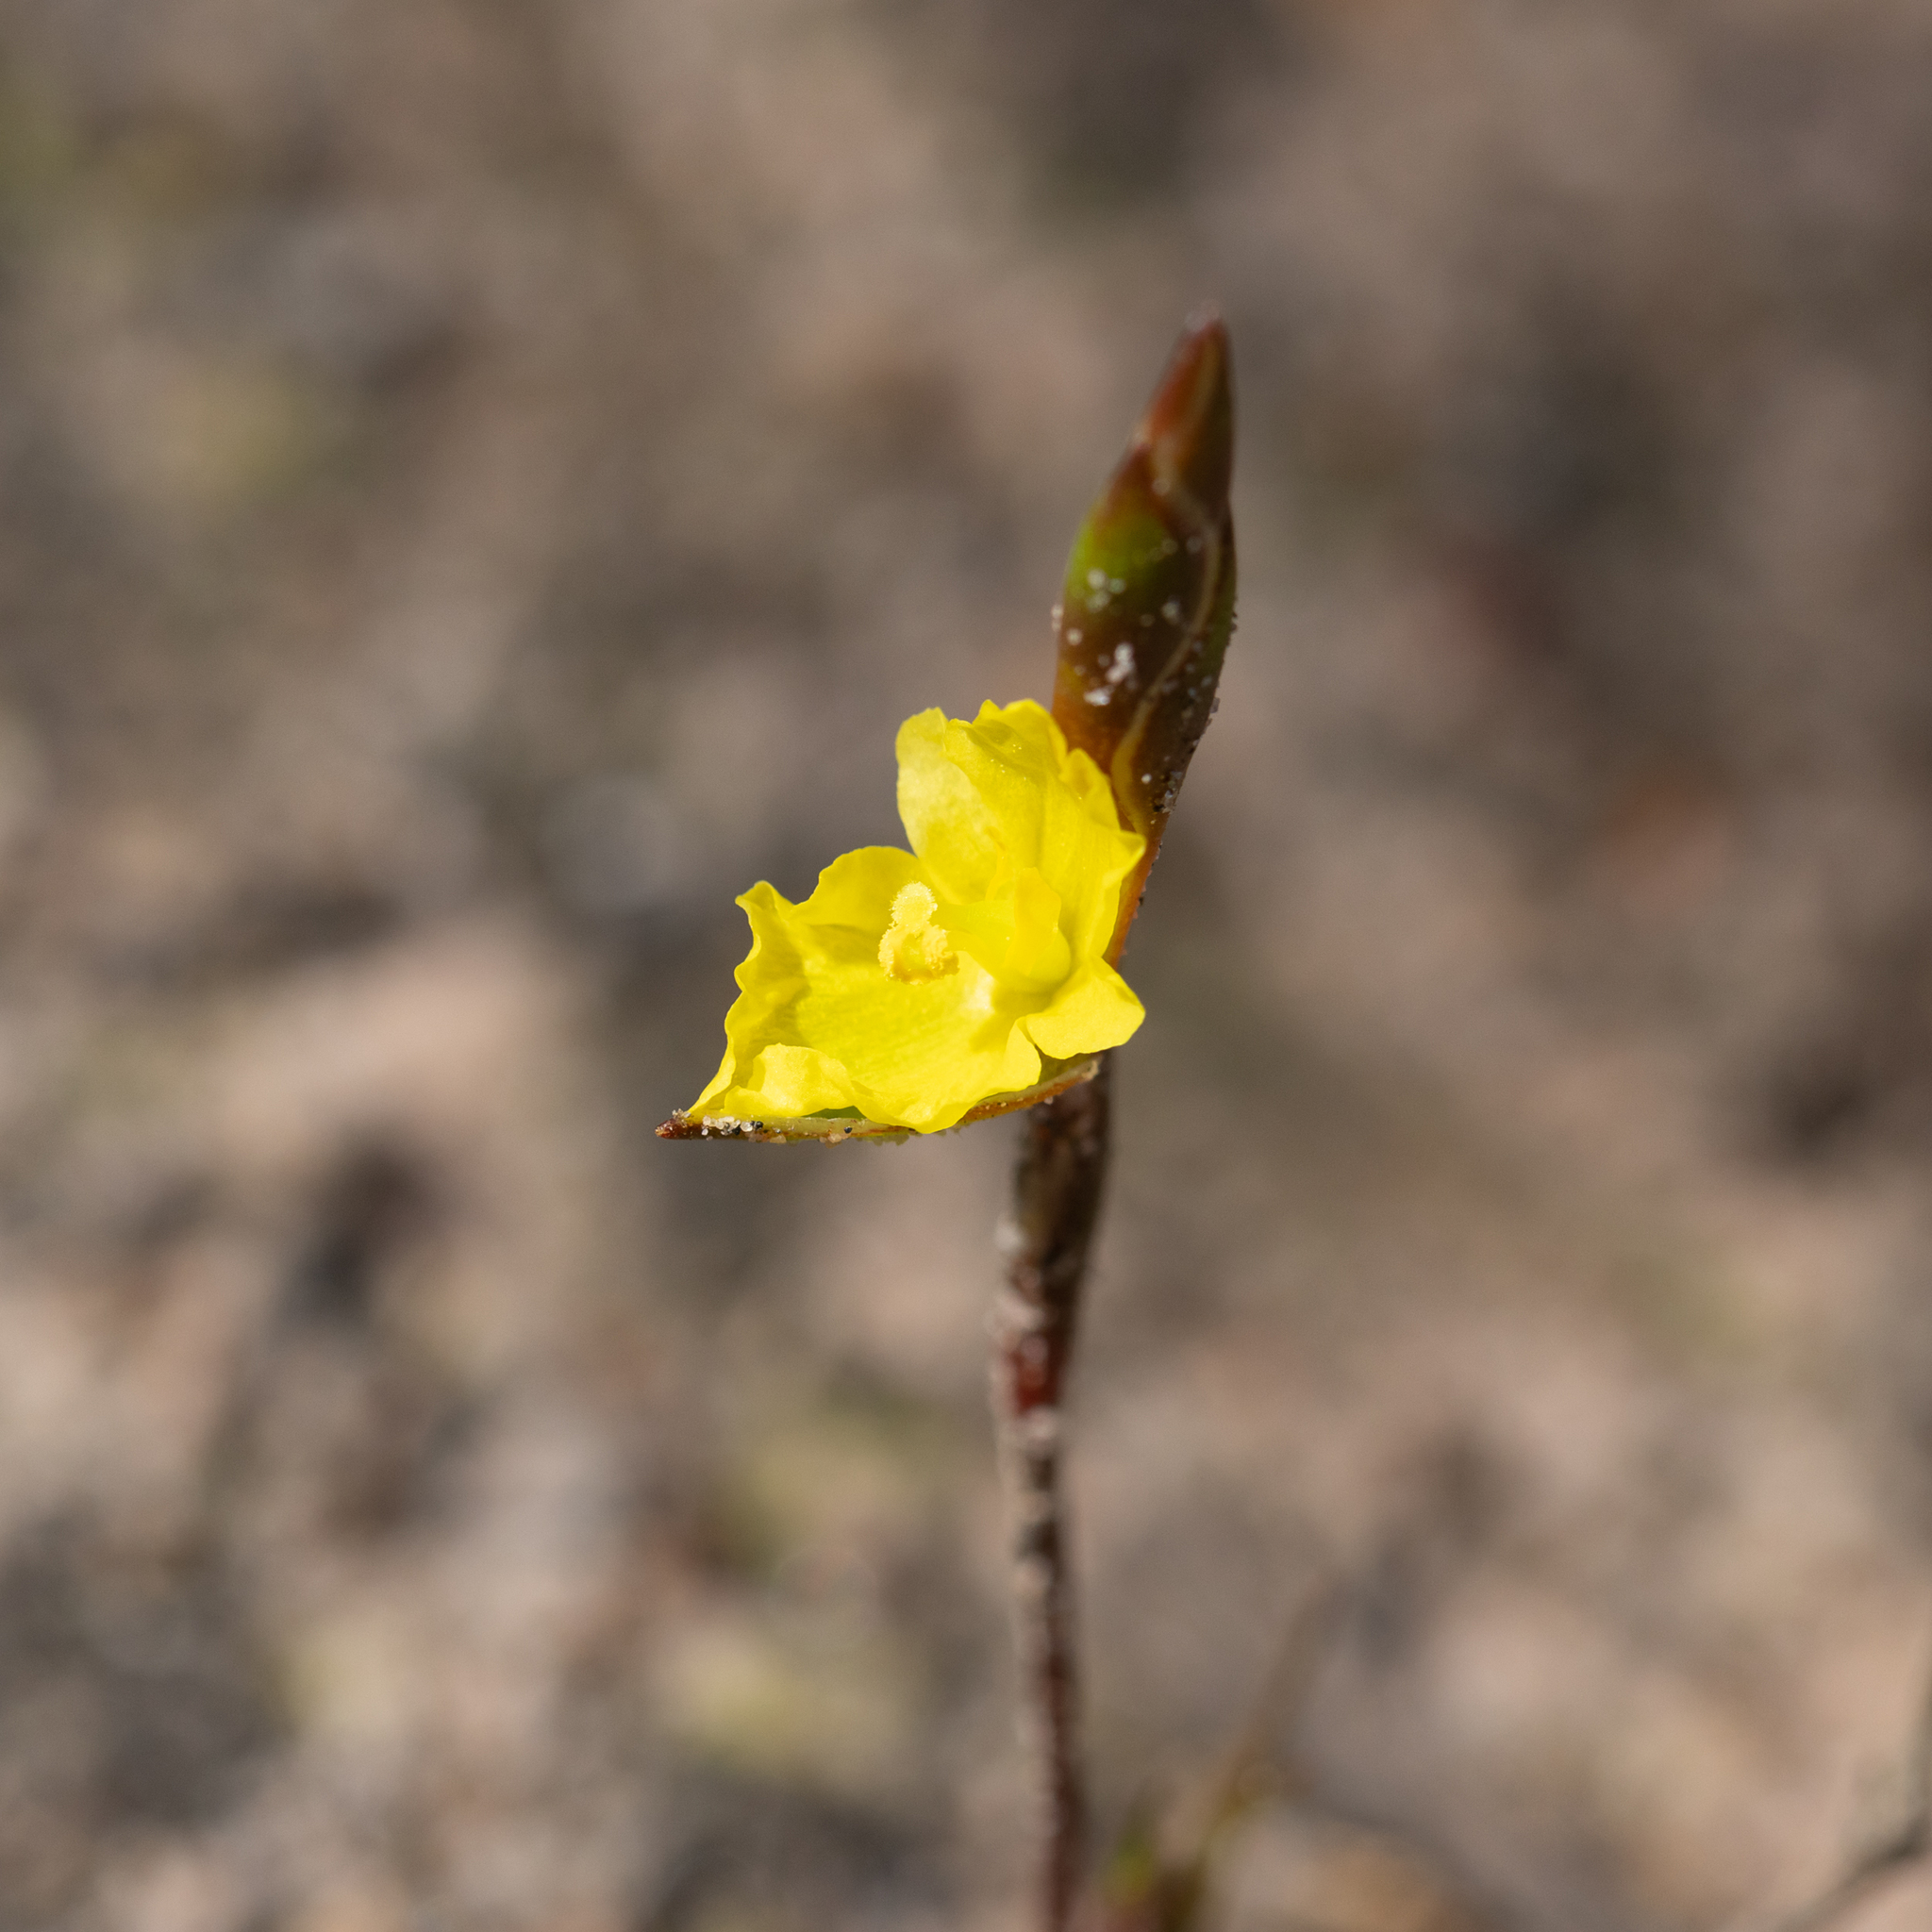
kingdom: Plantae
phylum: Tracheophyta
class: Liliopsida
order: Commelinales
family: Philydraceae
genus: Philydrella
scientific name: Philydrella pygmaea
